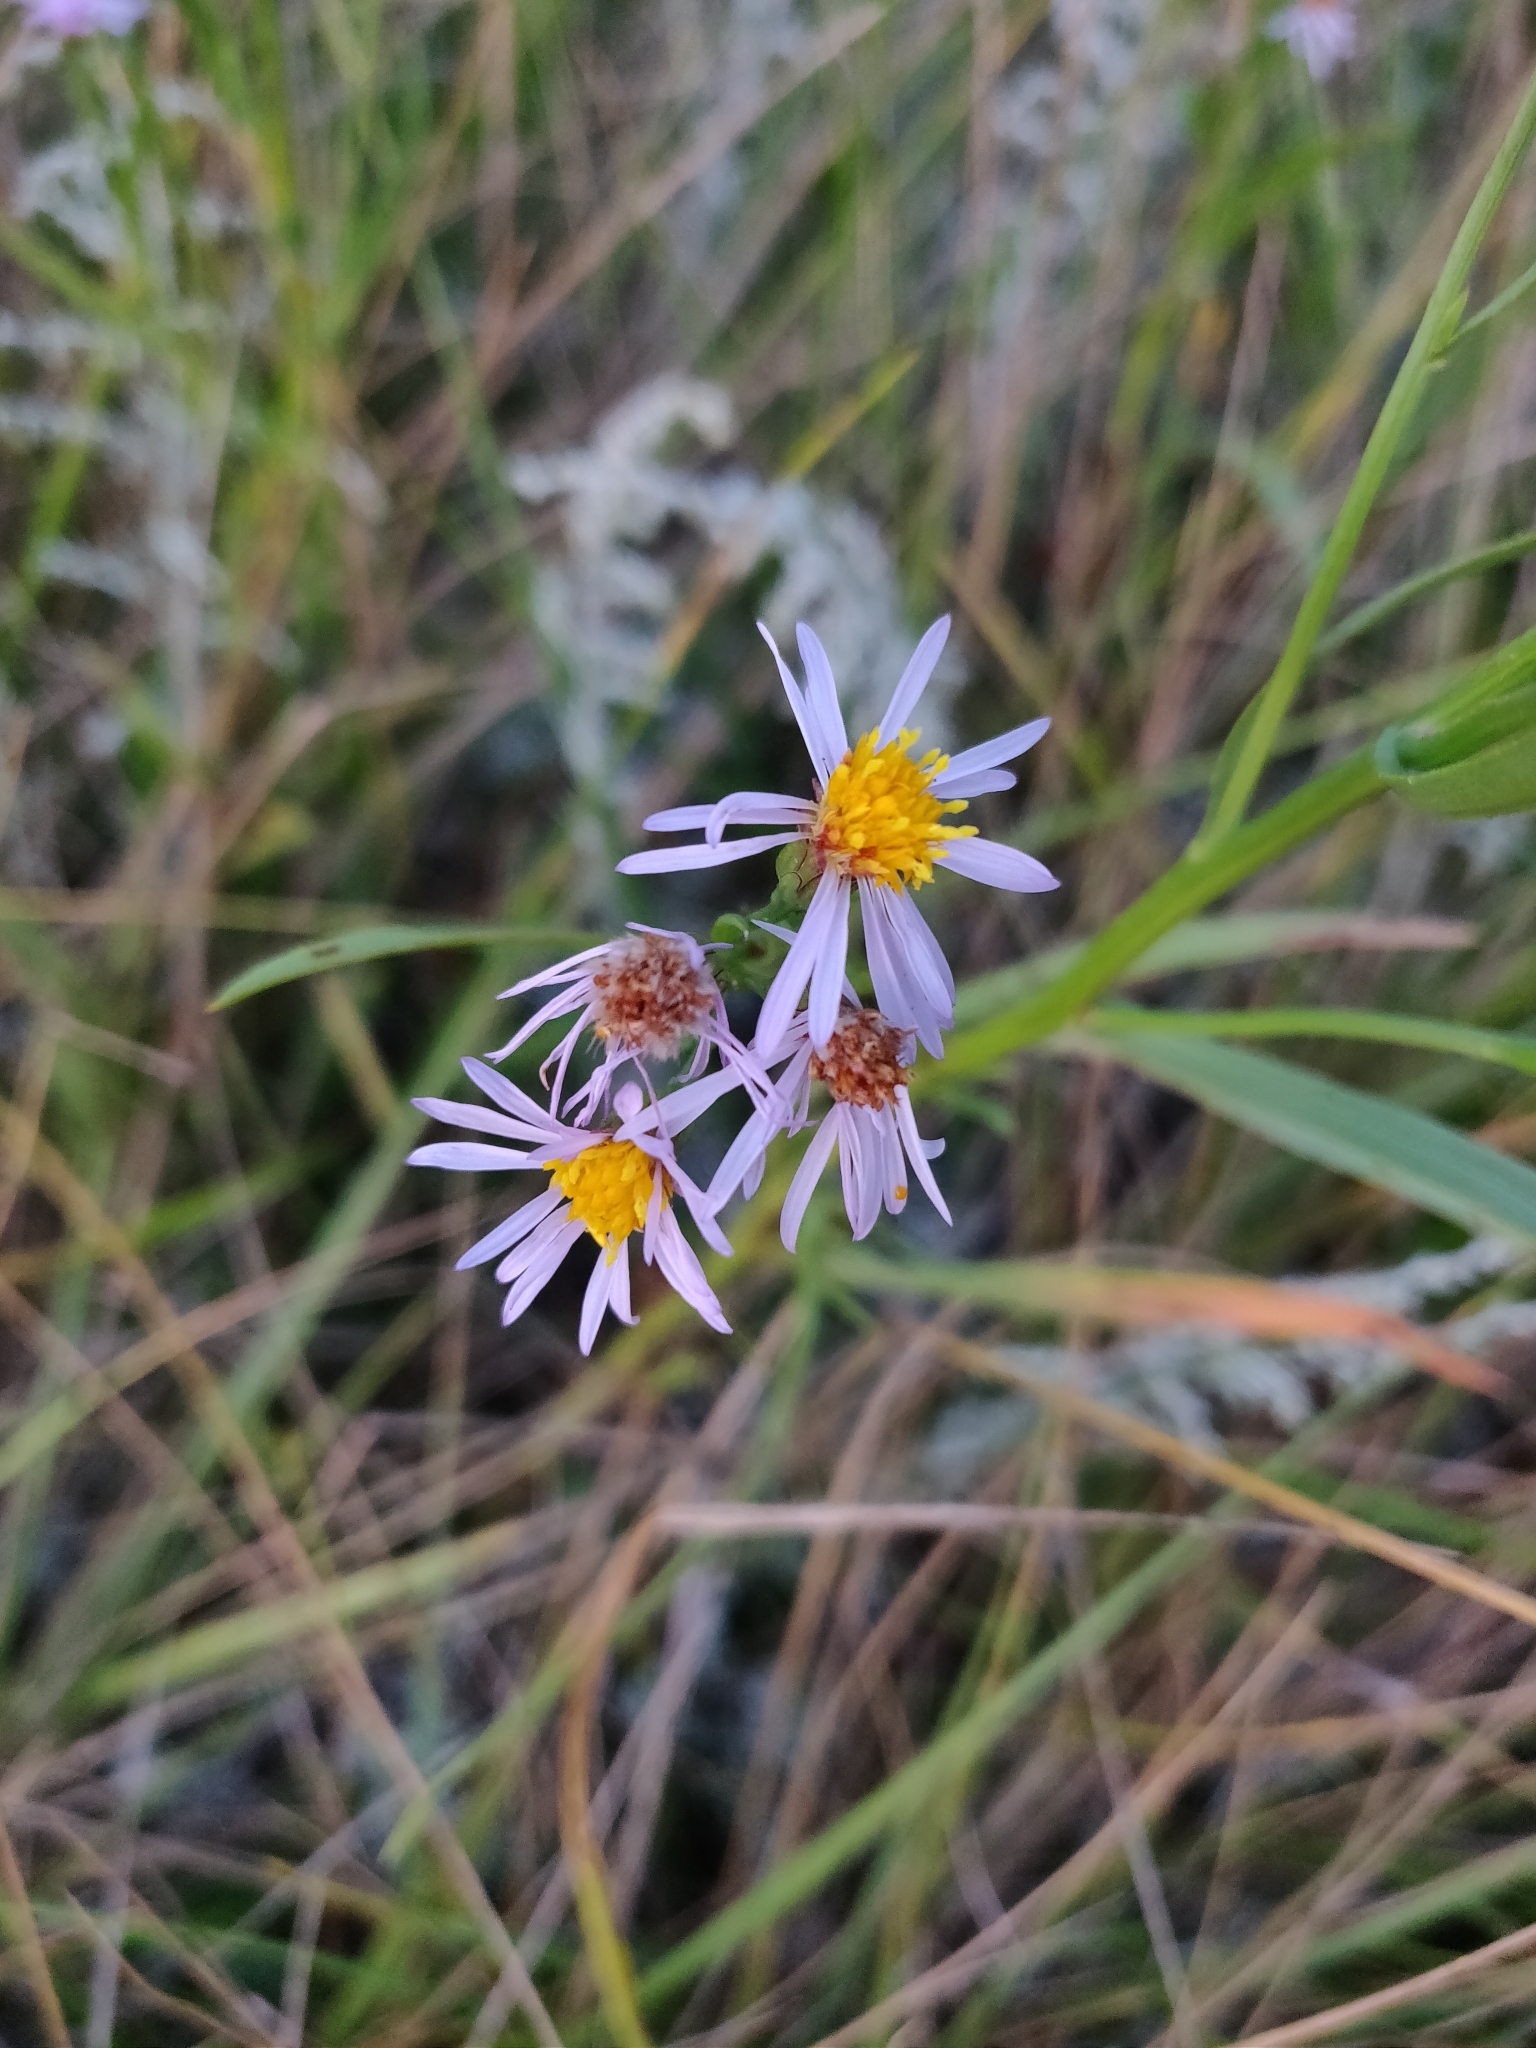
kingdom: Plantae
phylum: Tracheophyta
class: Magnoliopsida
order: Asterales
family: Asteraceae
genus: Tripolium
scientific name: Tripolium pannonicum
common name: Sea aster
